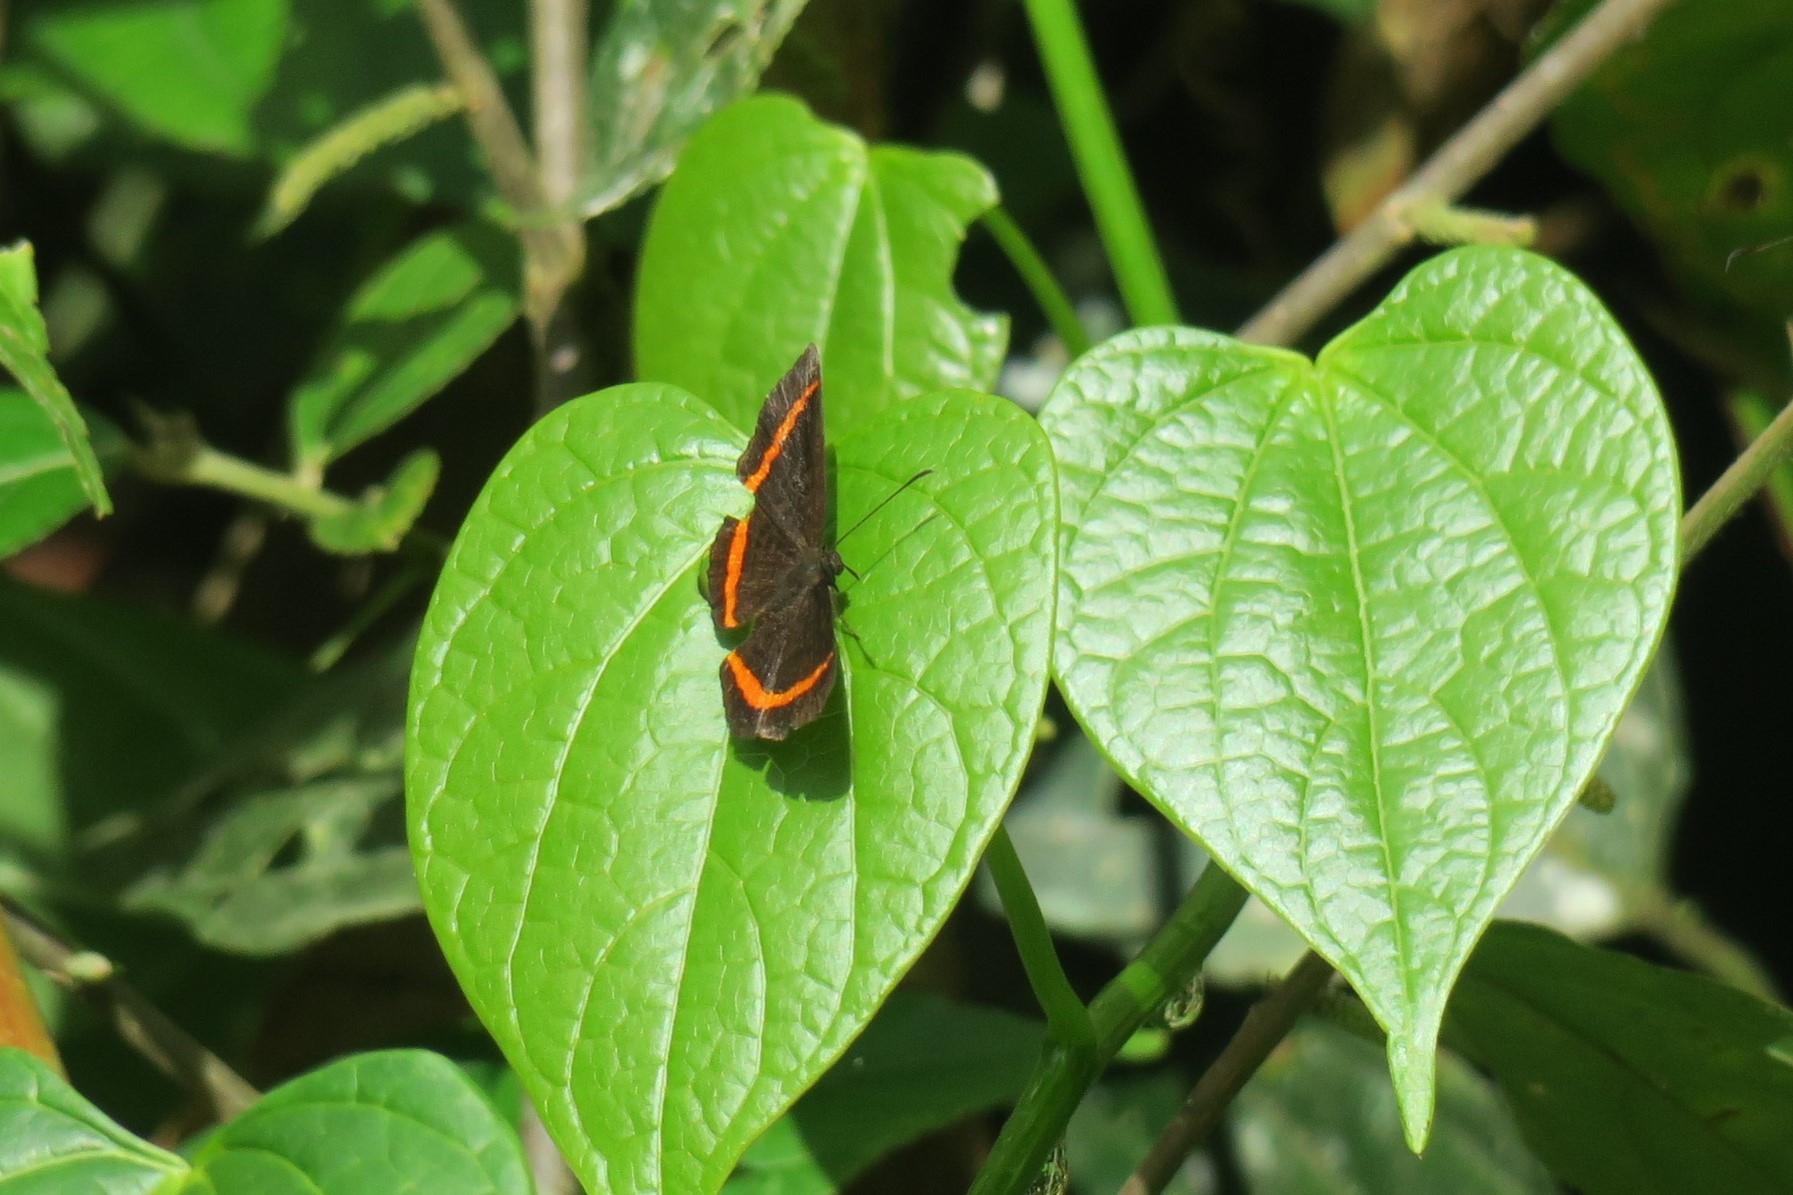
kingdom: Animalia
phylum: Arthropoda
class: Insecta
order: Lepidoptera
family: Riodinidae
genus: Crocozona
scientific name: Crocozona coecias
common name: Orange-banded gem
